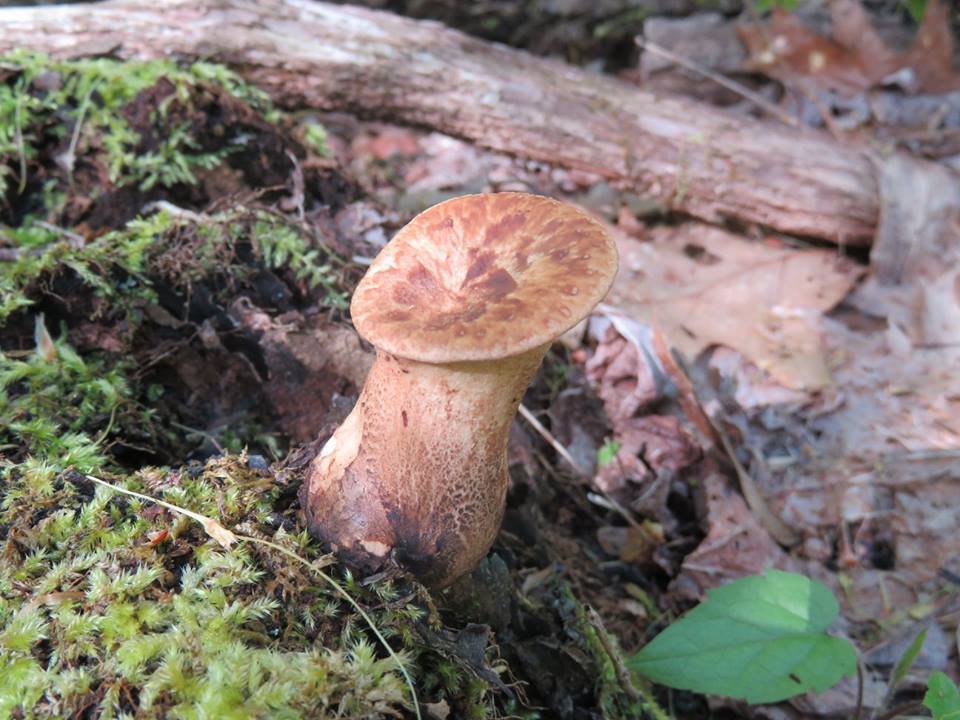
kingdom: Fungi
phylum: Basidiomycota
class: Agaricomycetes
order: Polyporales
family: Polyporaceae
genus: Cerioporus
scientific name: Cerioporus squamosus
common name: Dryad's saddle
